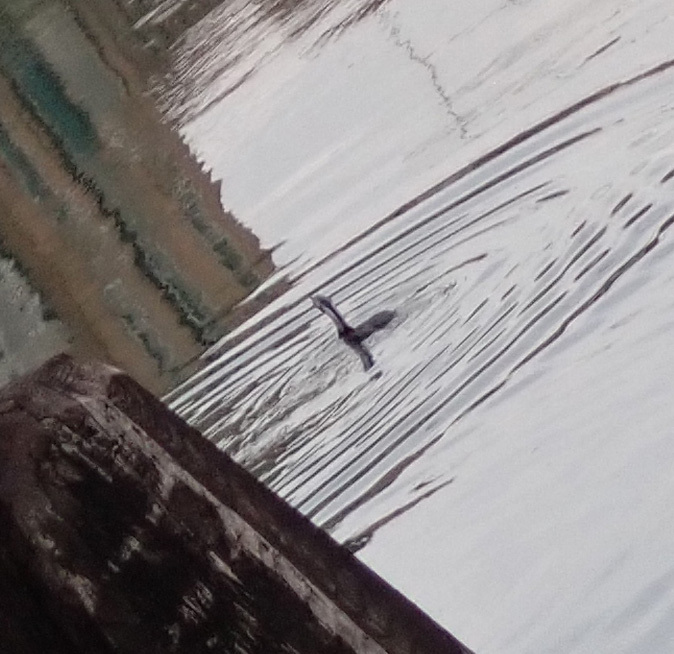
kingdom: Animalia
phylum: Chordata
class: Aves
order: Suliformes
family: Phalacrocoracidae
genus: Phalacrocorax
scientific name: Phalacrocorax carbo
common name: Great cormorant
